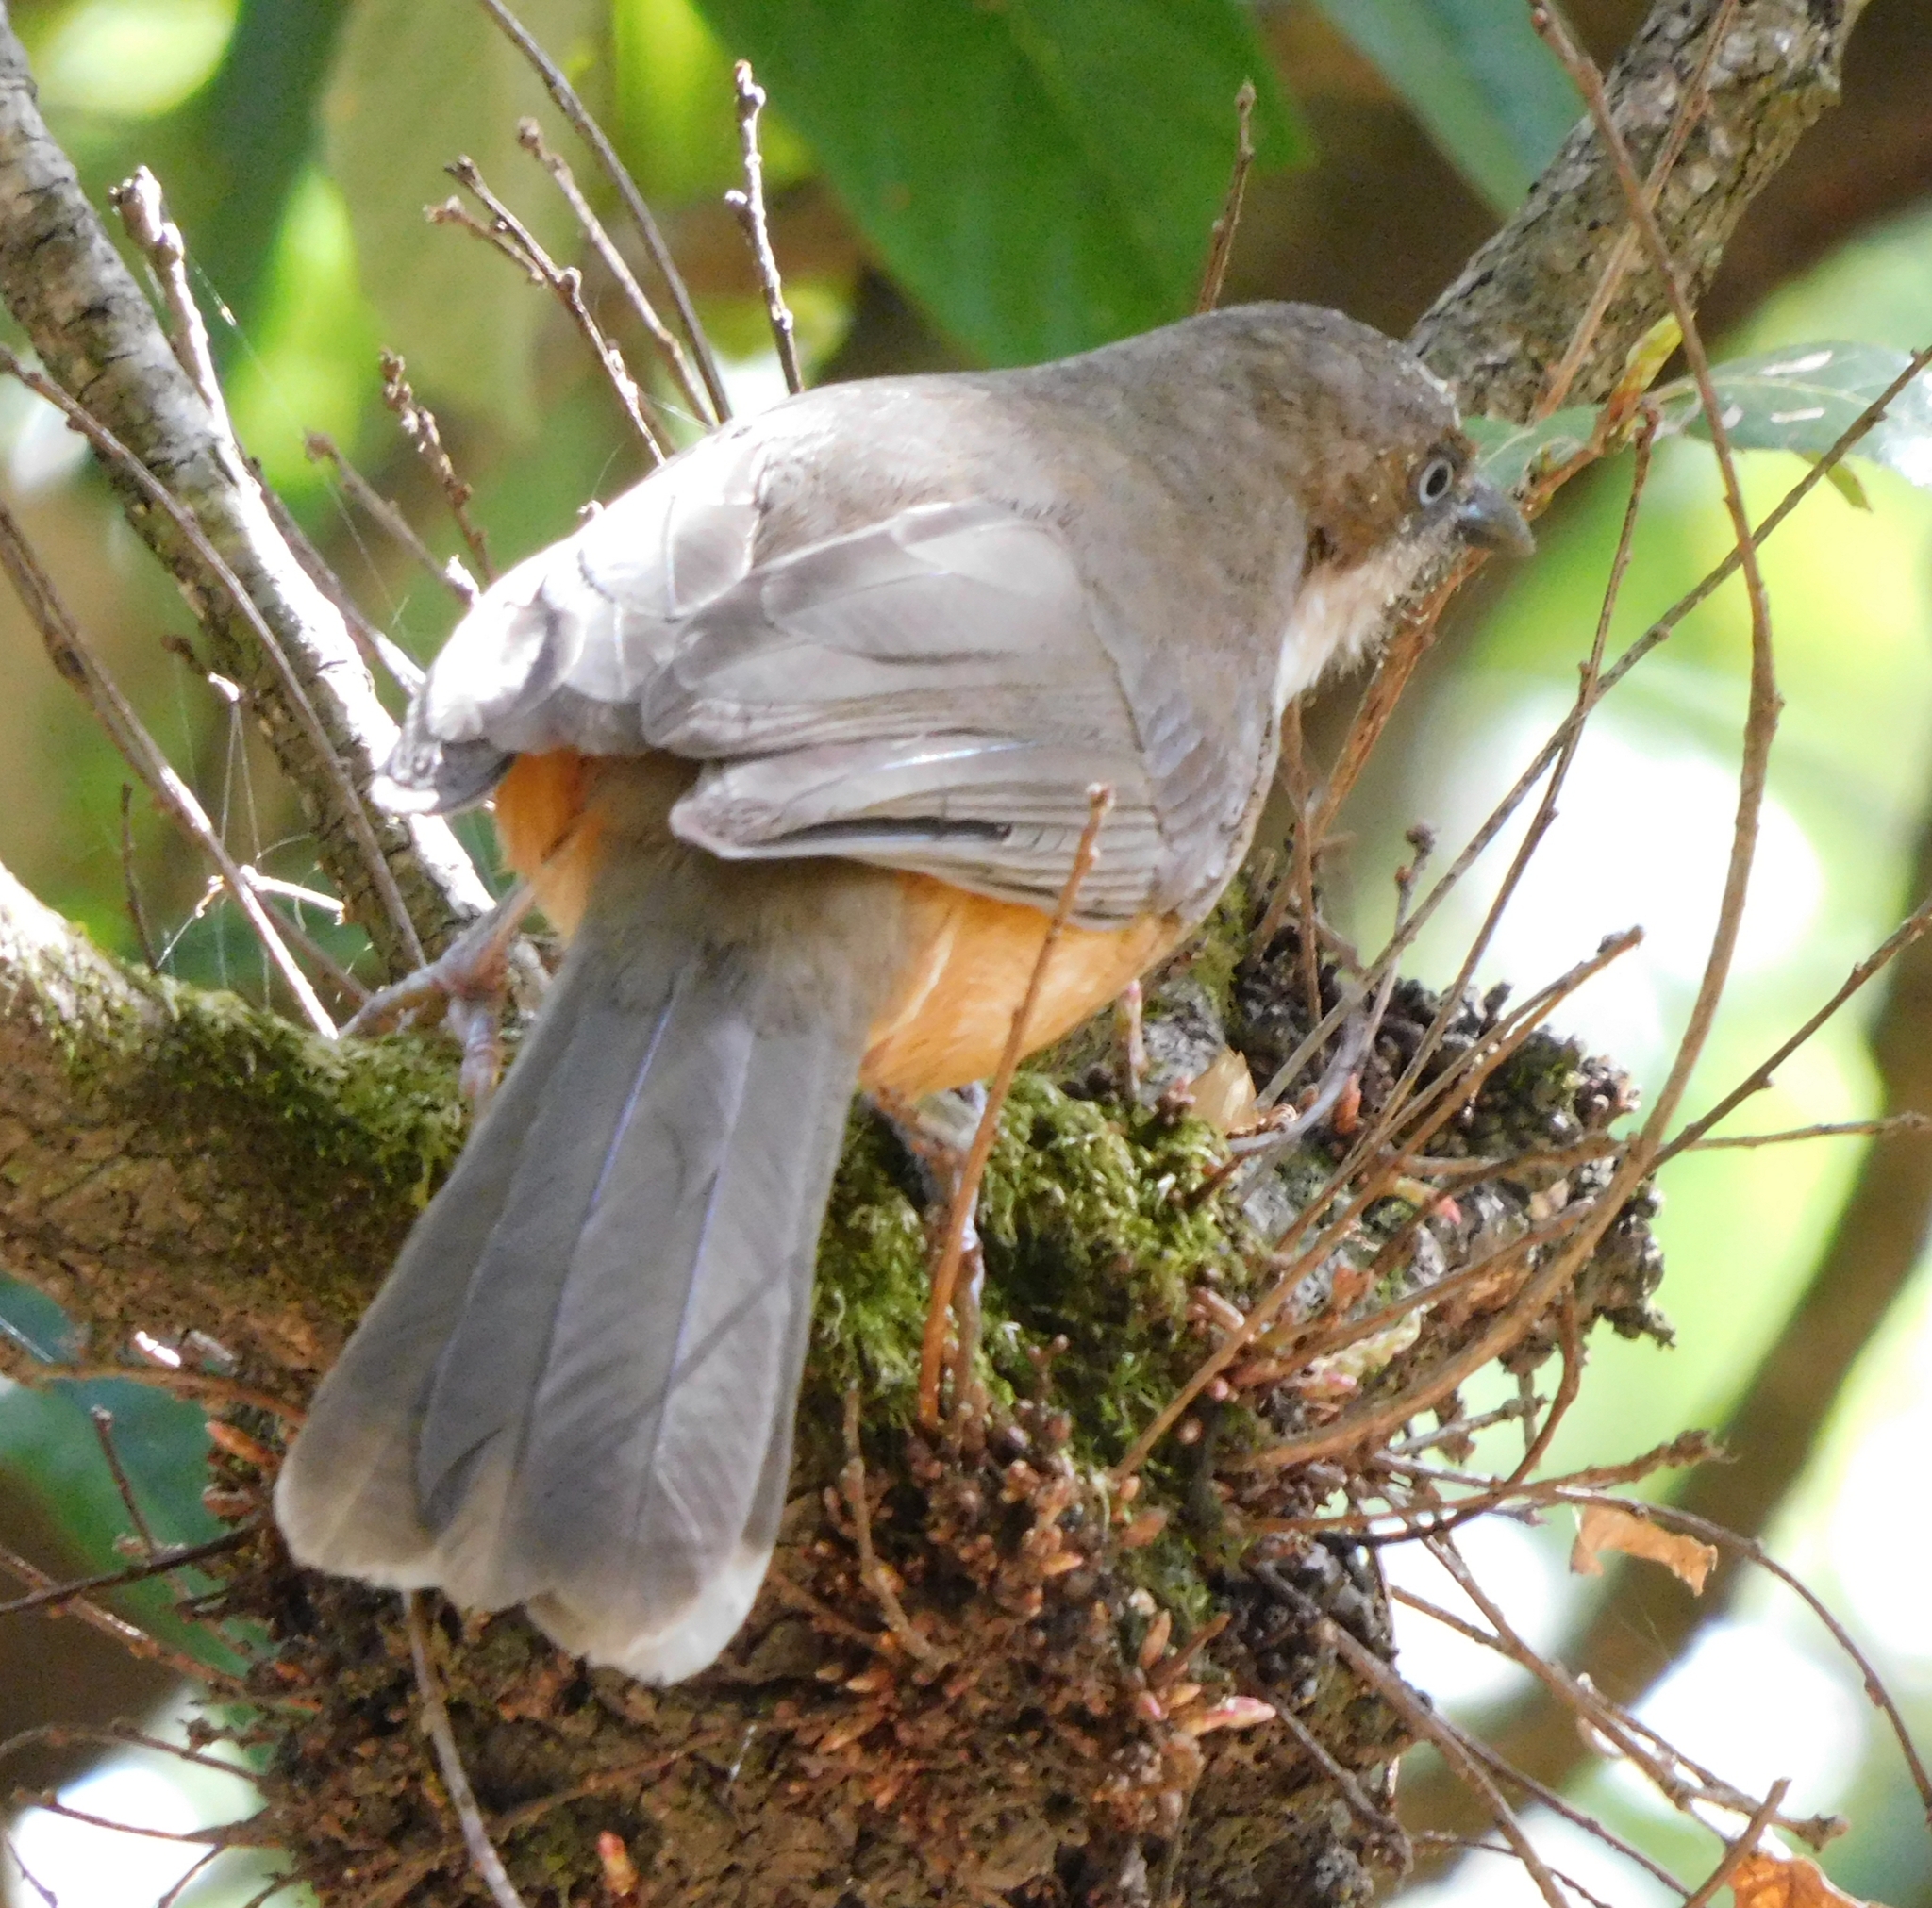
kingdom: Animalia
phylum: Chordata
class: Aves
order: Passeriformes
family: Leiothrichidae
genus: Garrulax
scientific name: Garrulax albogularis
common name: White-throated laughingthrush
